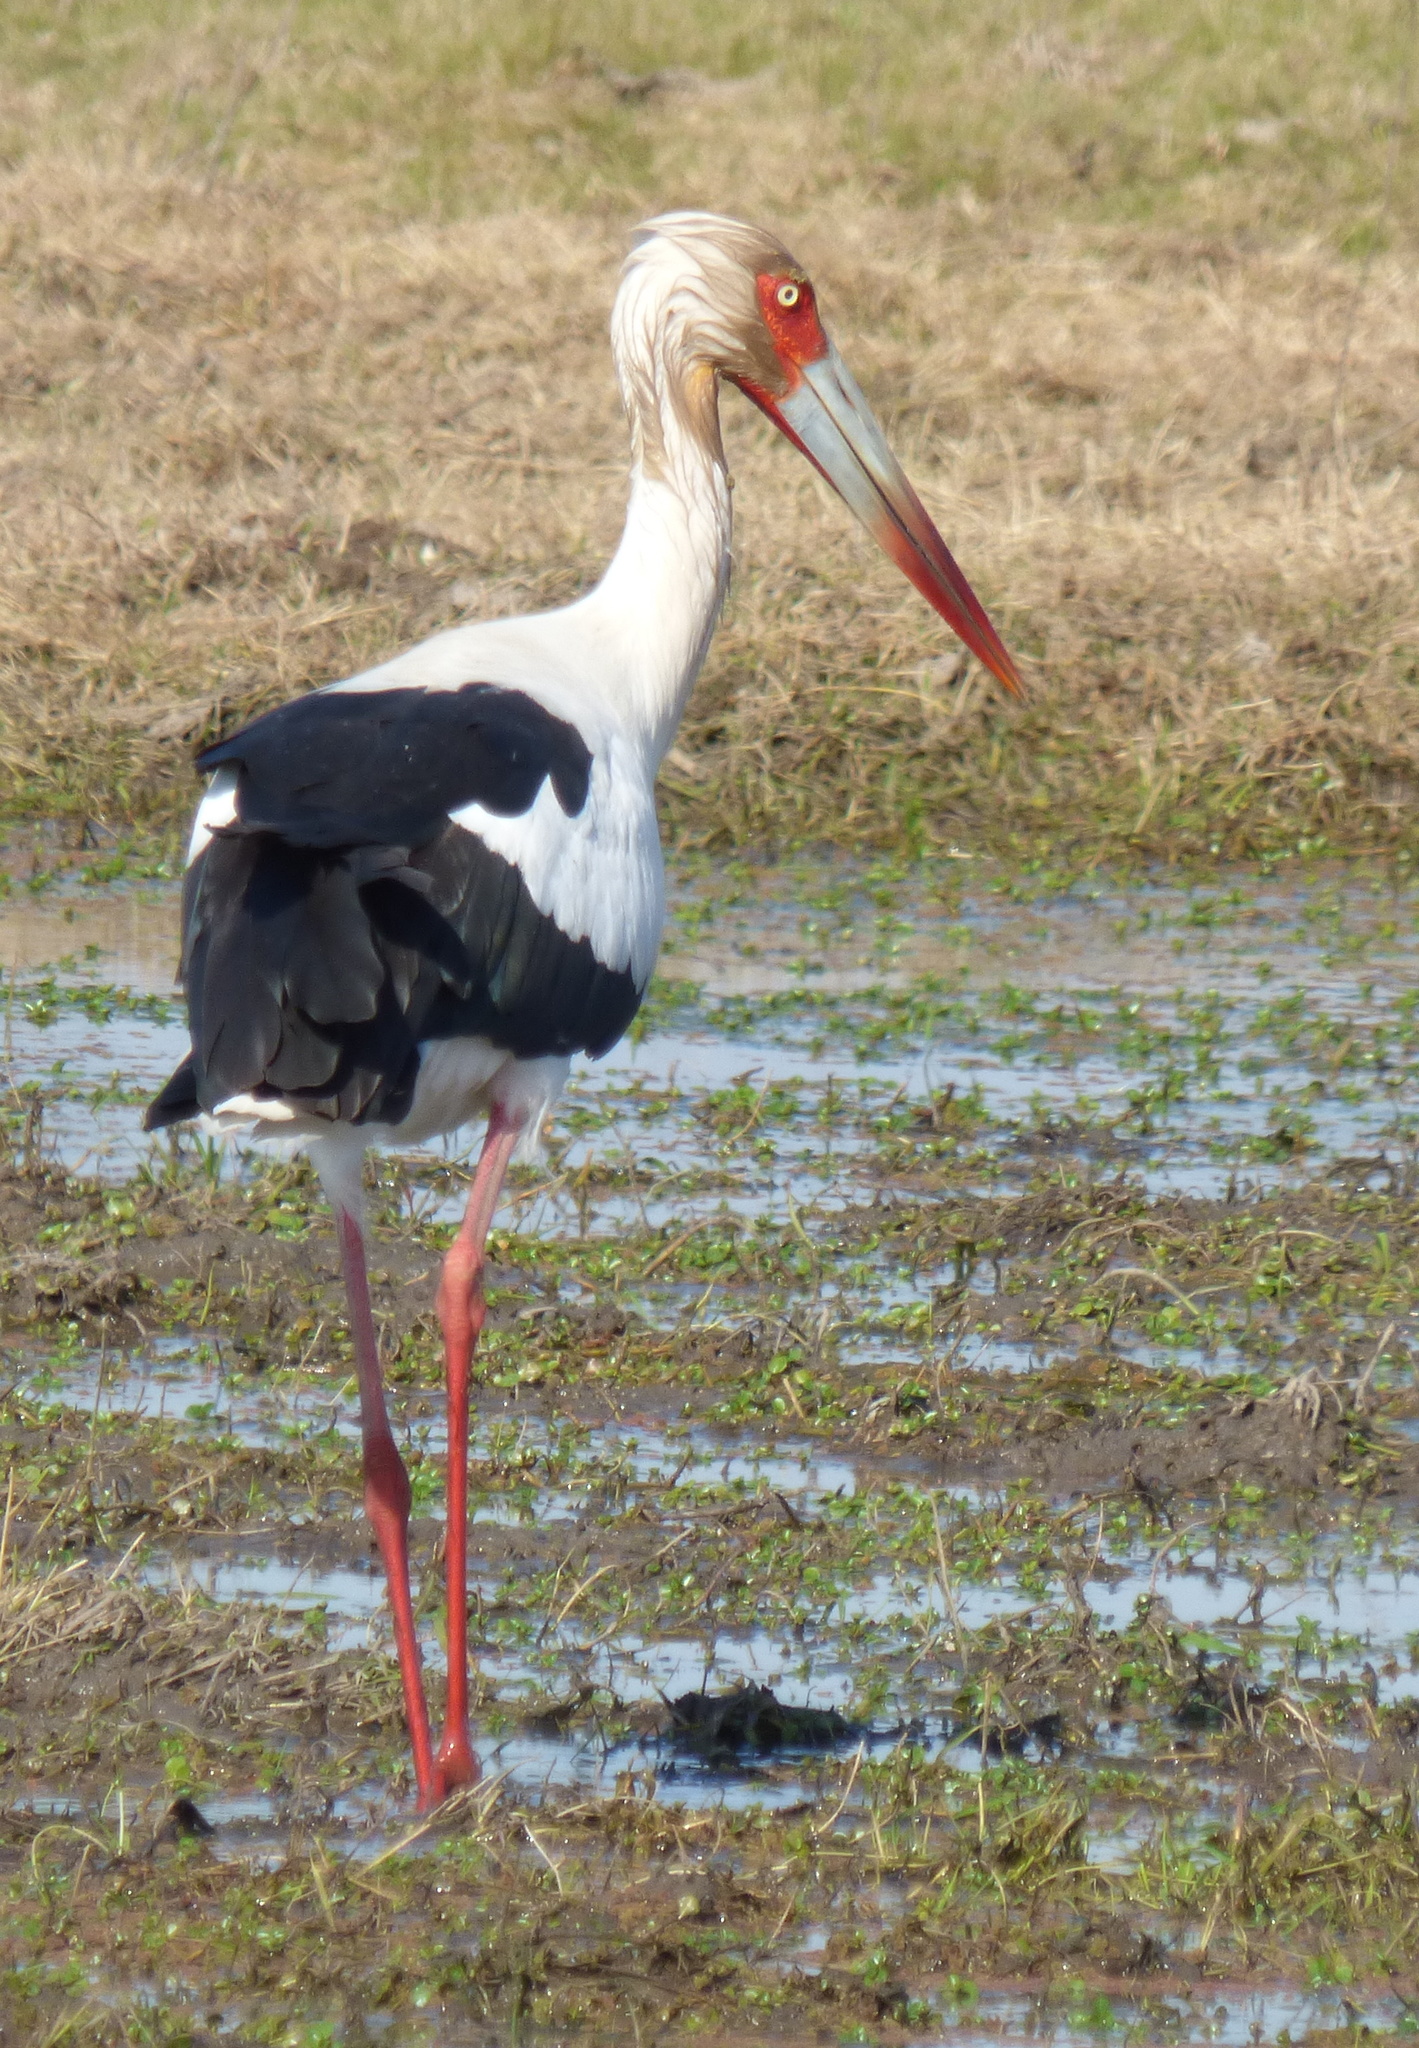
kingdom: Animalia
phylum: Chordata
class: Aves
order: Ciconiiformes
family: Ciconiidae
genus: Ciconia
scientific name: Ciconia maguari
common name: Maguari stork
